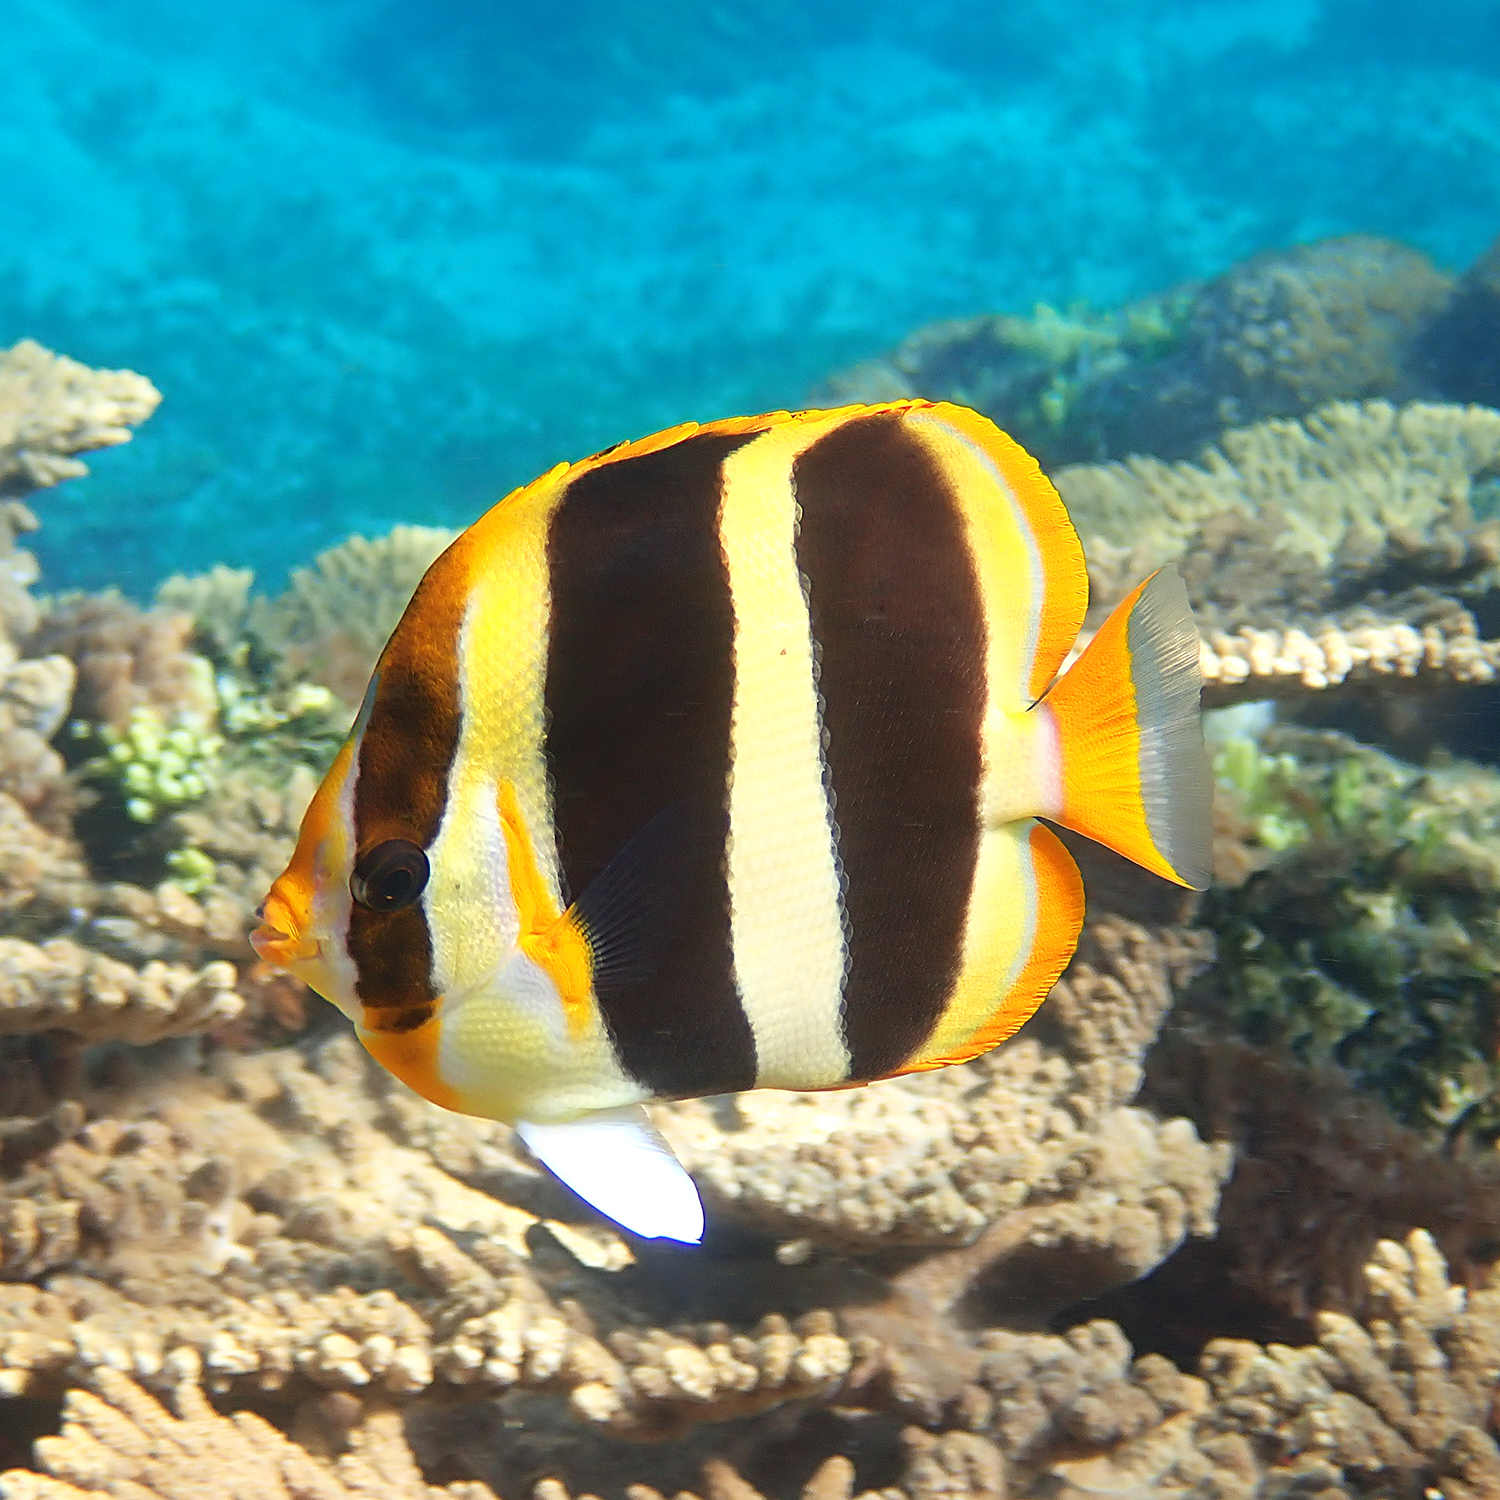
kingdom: Animalia
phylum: Chordata
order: Perciformes
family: Chaetodontidae
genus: Chaetodon
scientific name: Chaetodon tricinctus
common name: Three-striped butterflyfish
